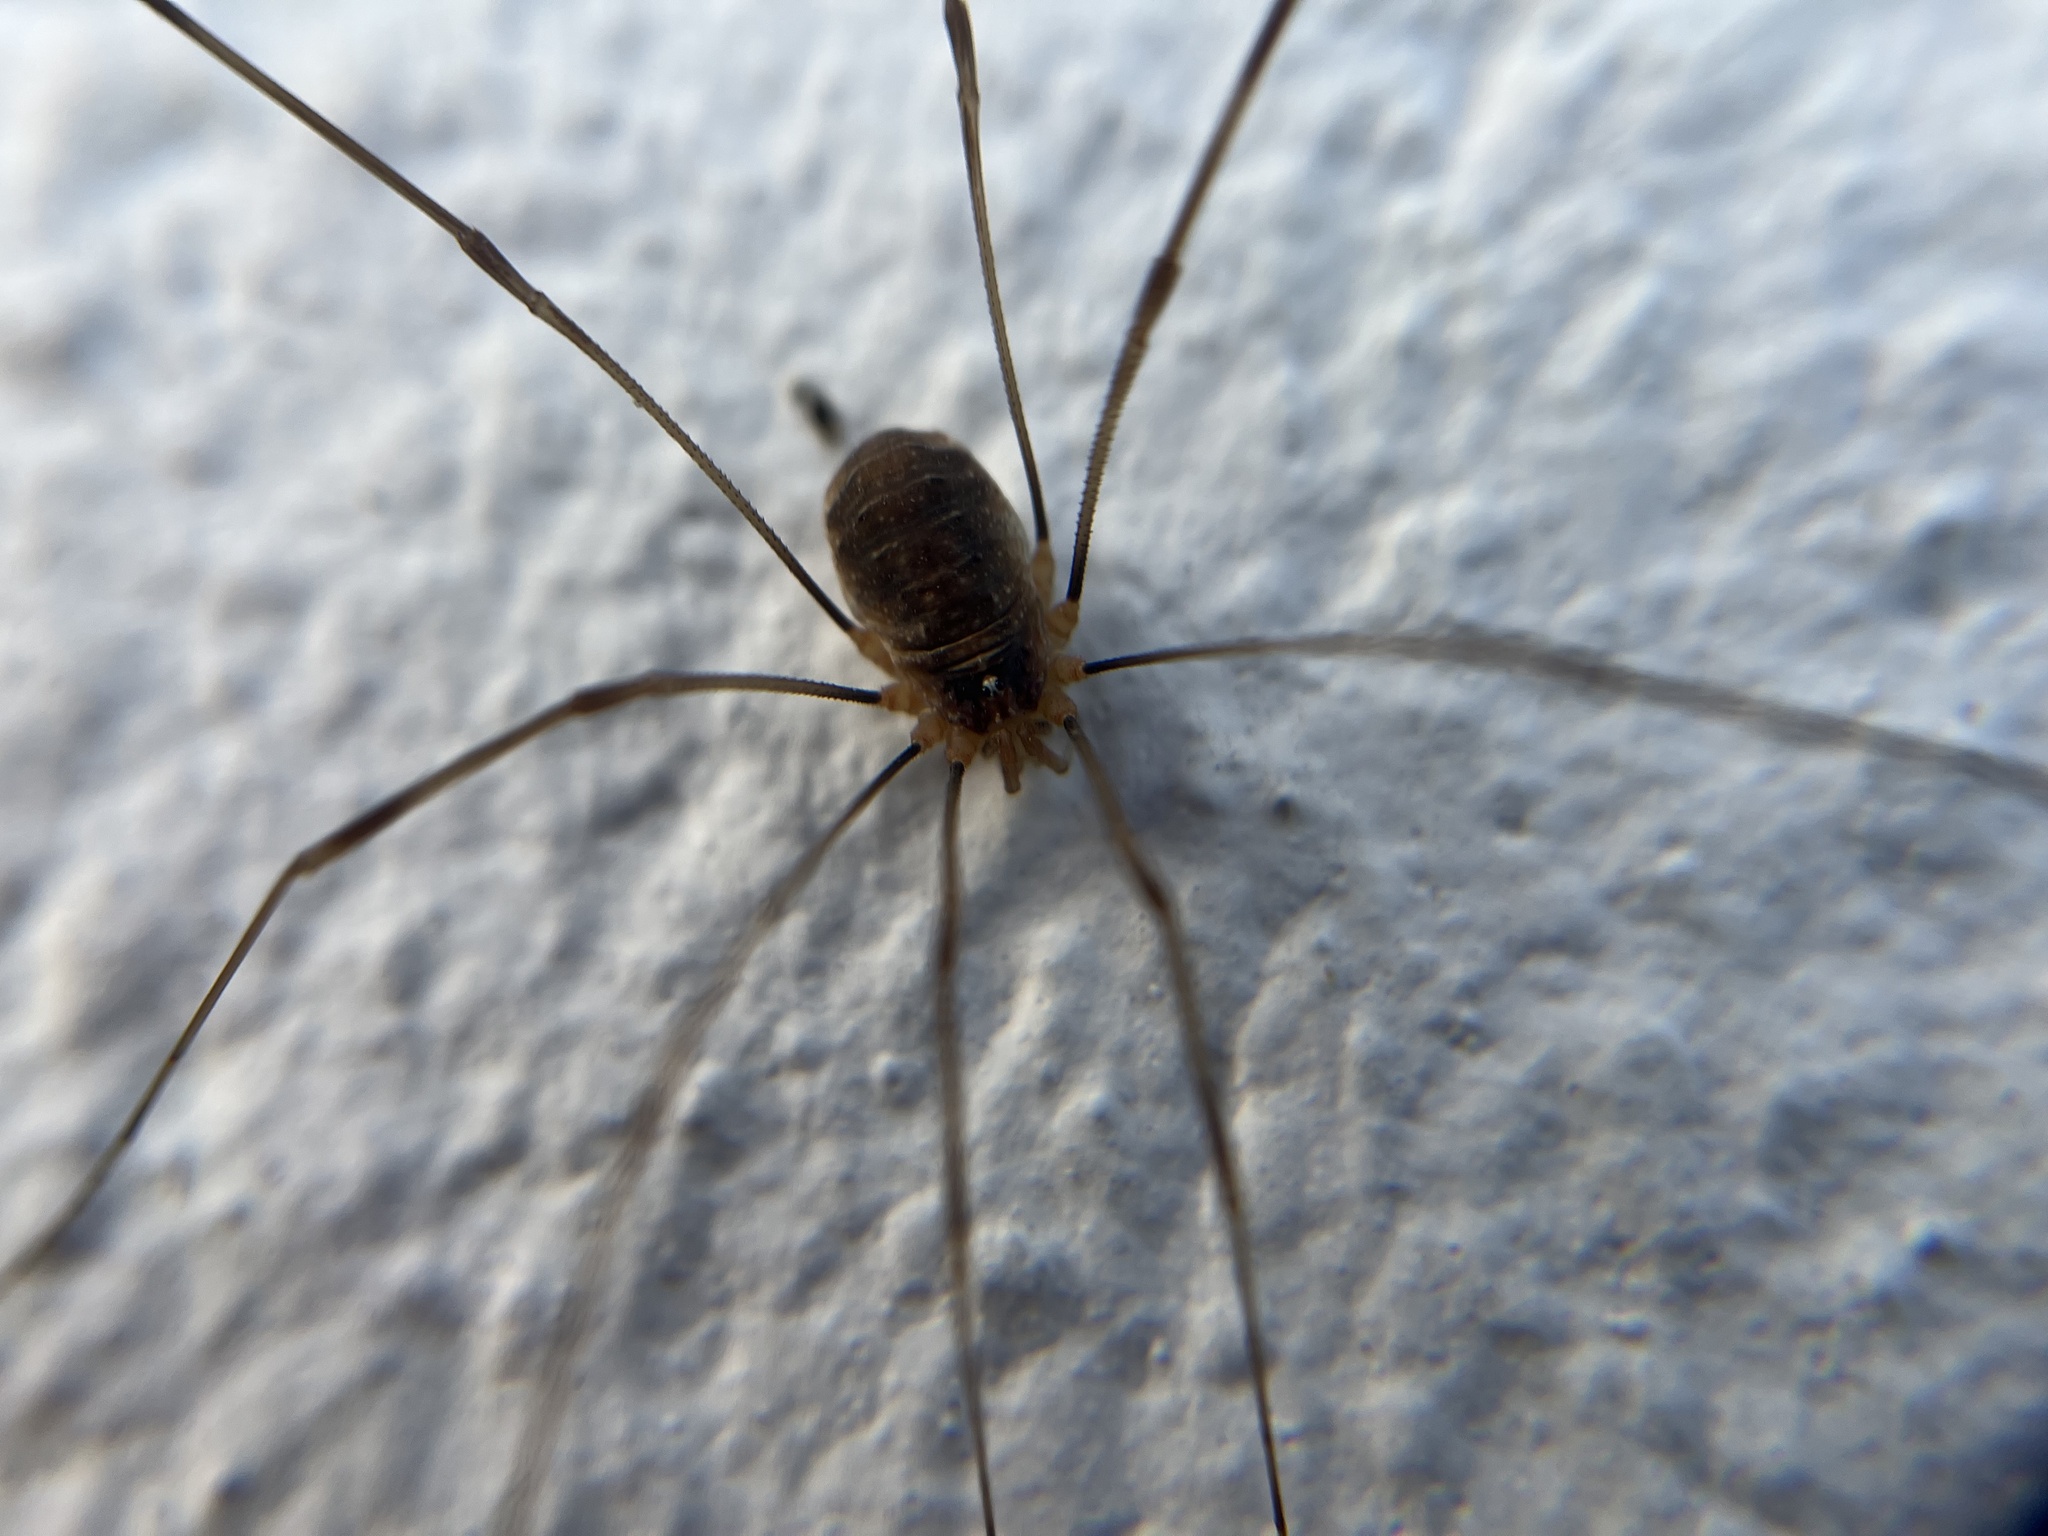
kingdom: Animalia
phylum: Arthropoda
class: Arachnida
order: Opiliones
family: Phalangiidae
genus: Opilio
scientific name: Opilio canestrinii
